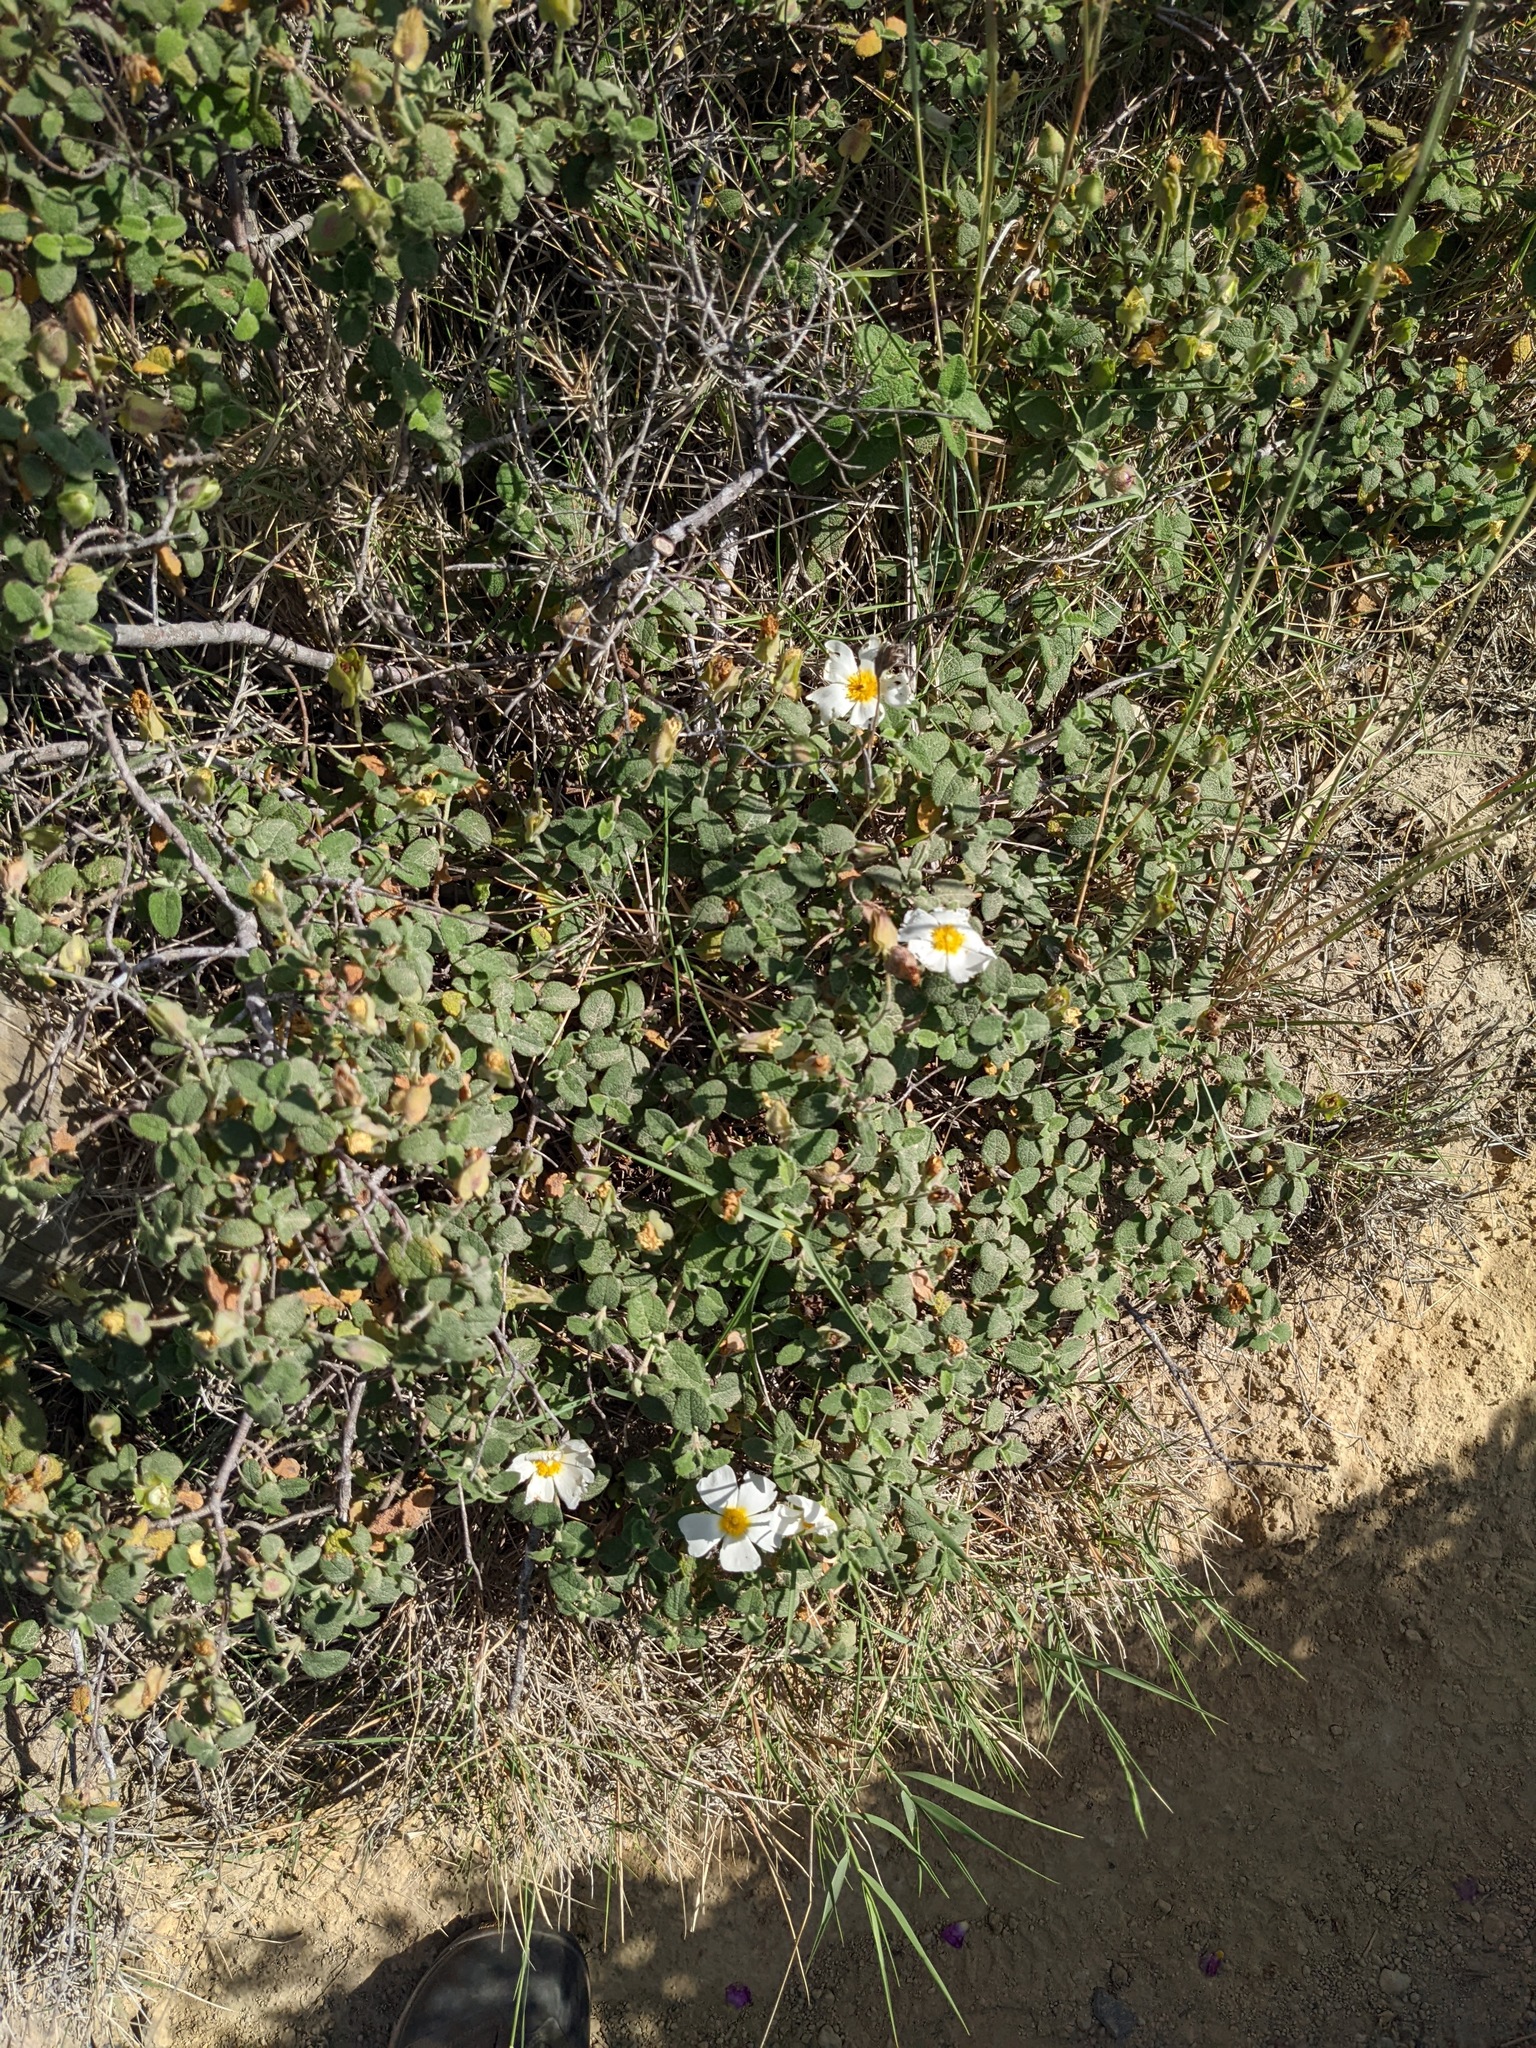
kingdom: Plantae
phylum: Tracheophyta
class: Magnoliopsida
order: Malvales
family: Cistaceae
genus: Cistus
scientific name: Cistus salviifolius
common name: Salvia cistus
